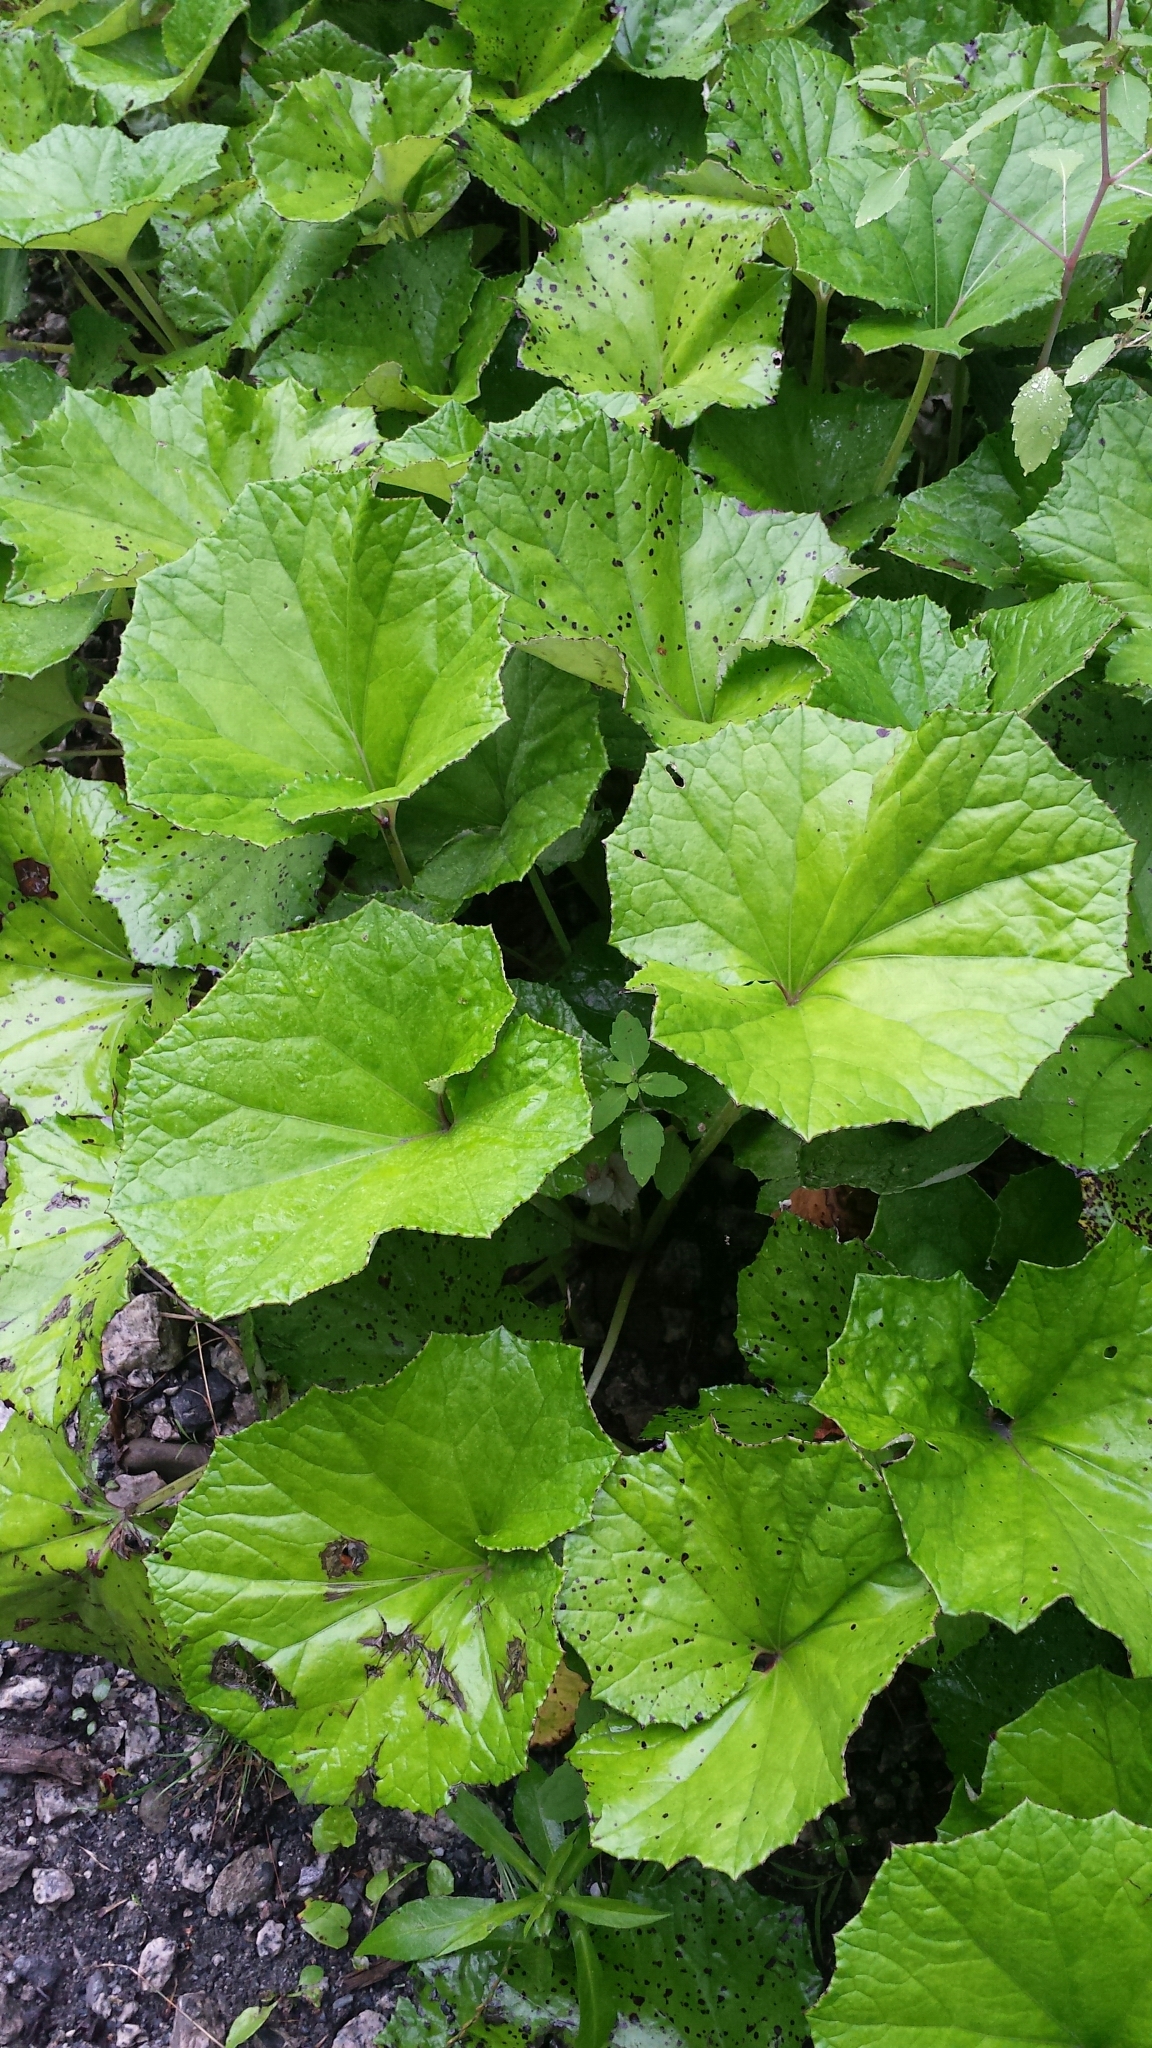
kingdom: Plantae
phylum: Tracheophyta
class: Magnoliopsida
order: Asterales
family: Asteraceae
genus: Tussilago
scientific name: Tussilago farfara
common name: Coltsfoot
